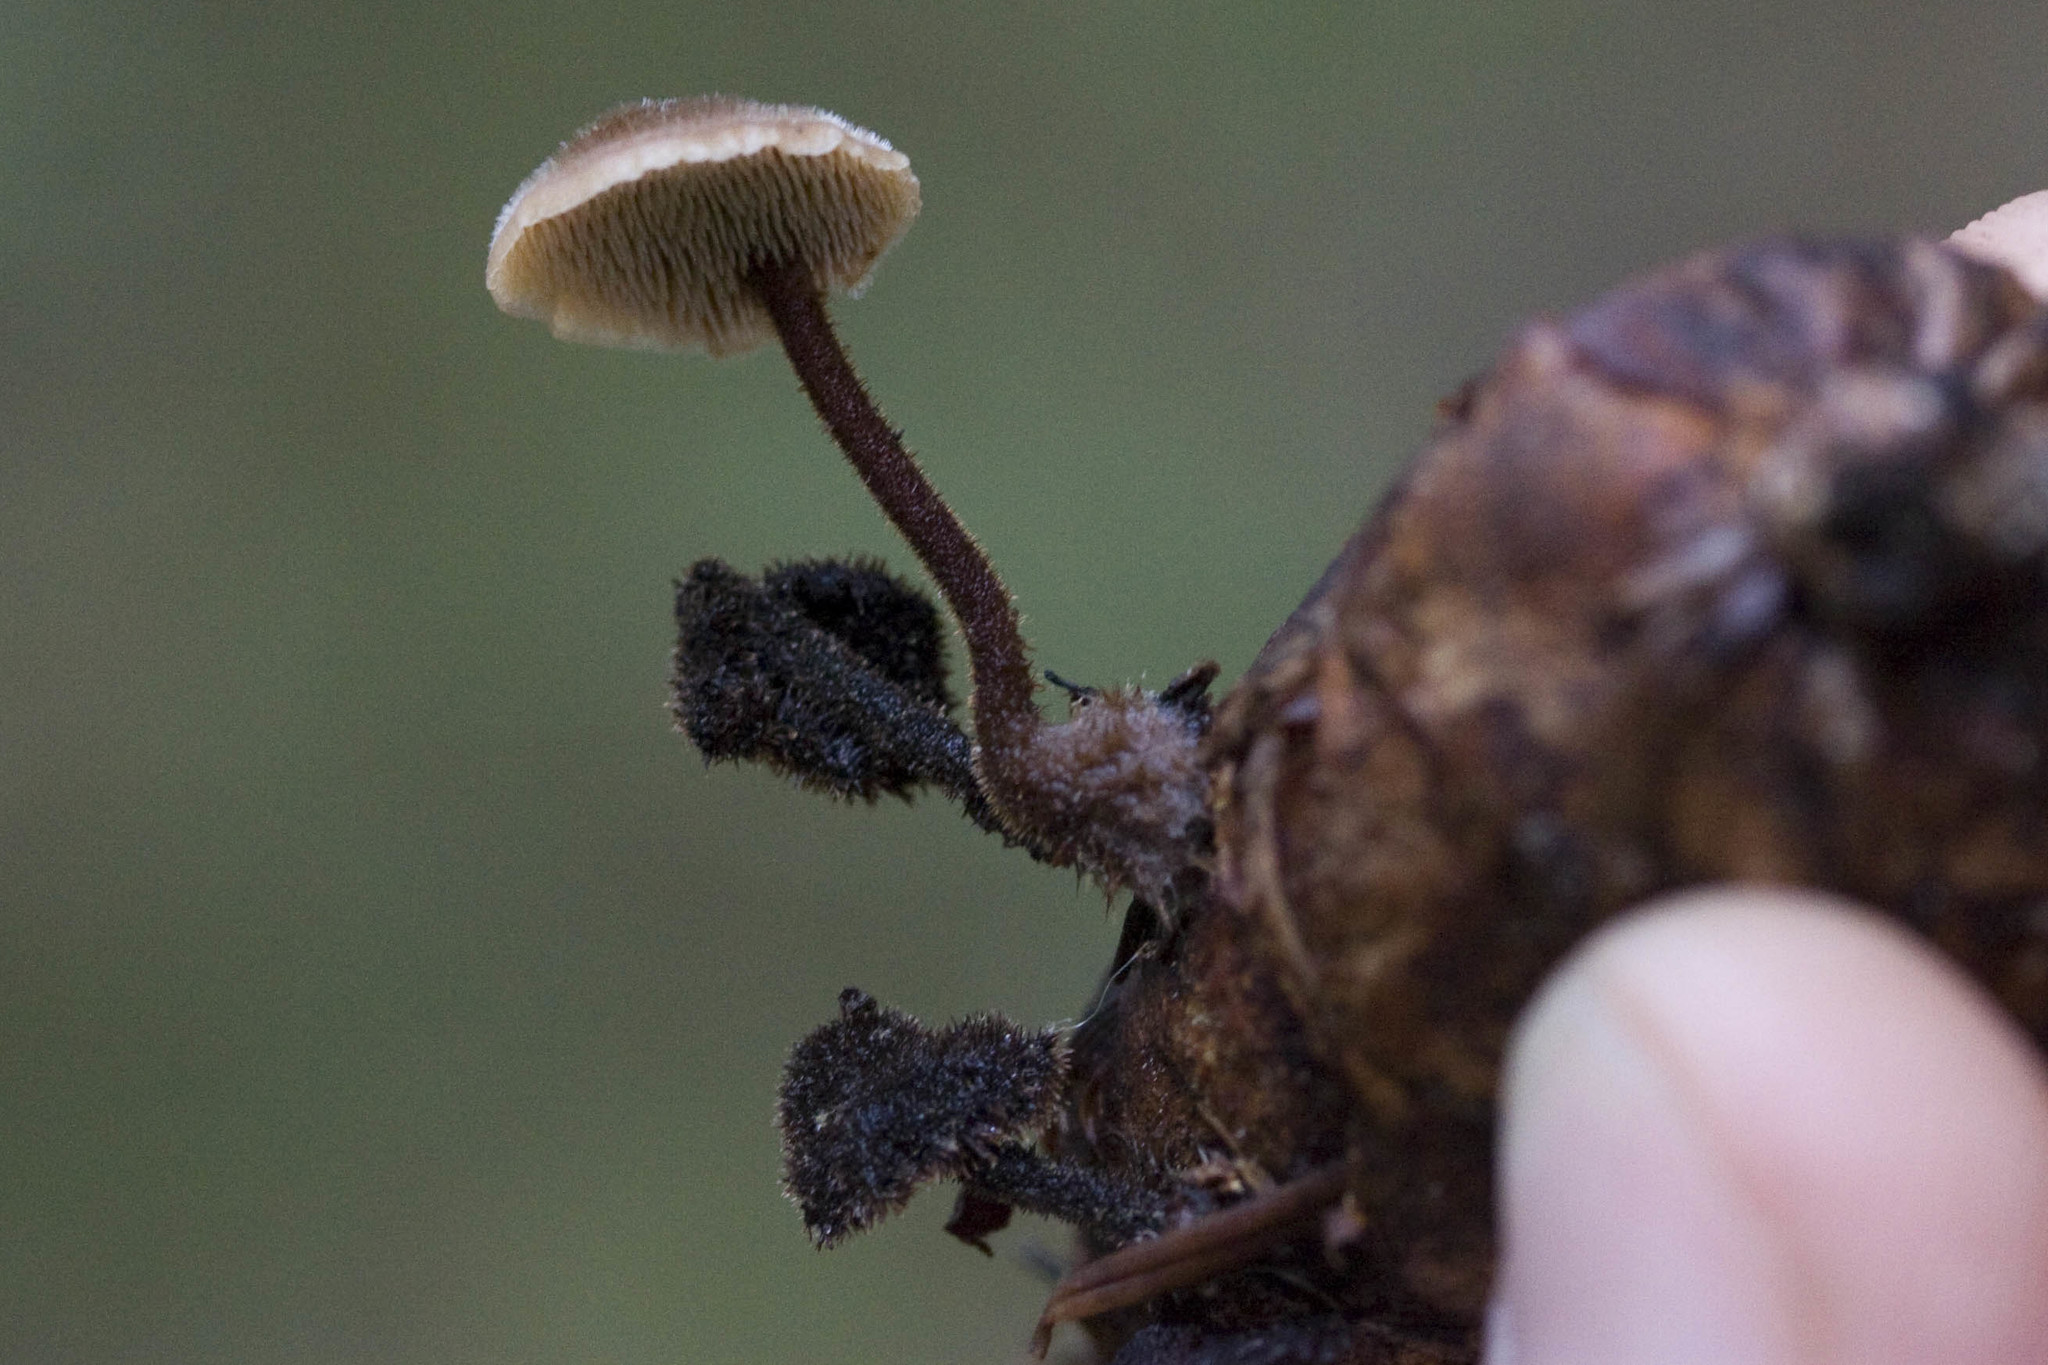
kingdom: Fungi
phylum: Basidiomycota
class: Agaricomycetes
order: Russulales
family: Auriscalpiaceae
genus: Auriscalpium
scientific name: Auriscalpium vulgare
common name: Earpick fungus
